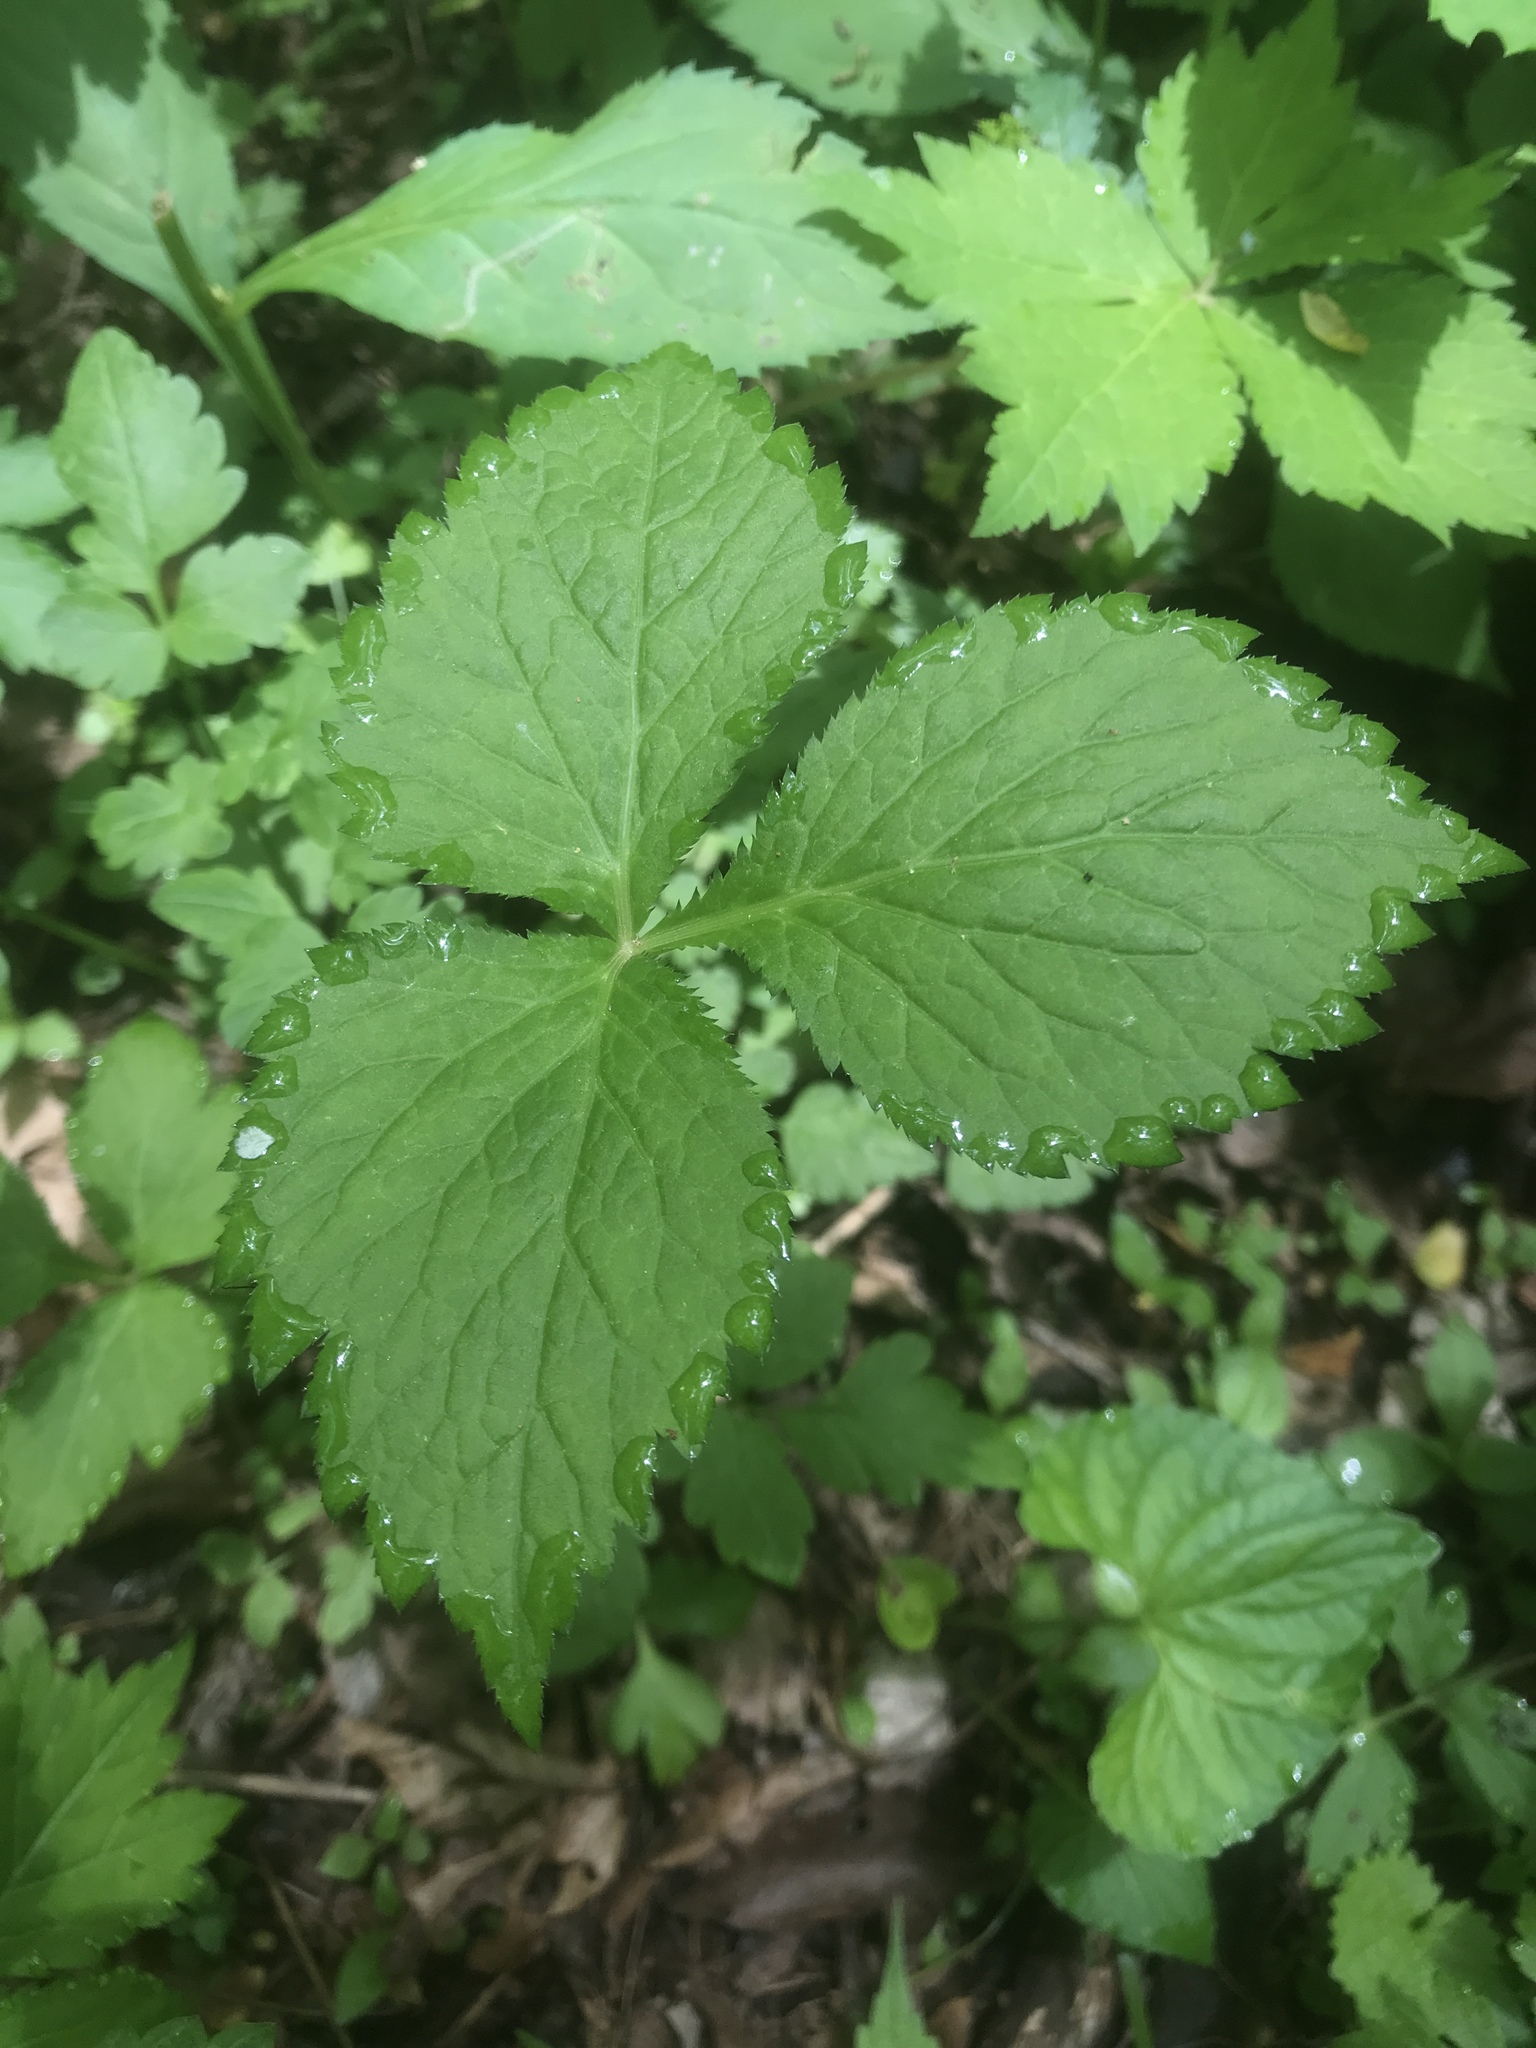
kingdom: Plantae
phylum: Tracheophyta
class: Magnoliopsida
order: Apiales
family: Apiaceae
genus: Cryptotaenia
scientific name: Cryptotaenia canadensis
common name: Honewort
